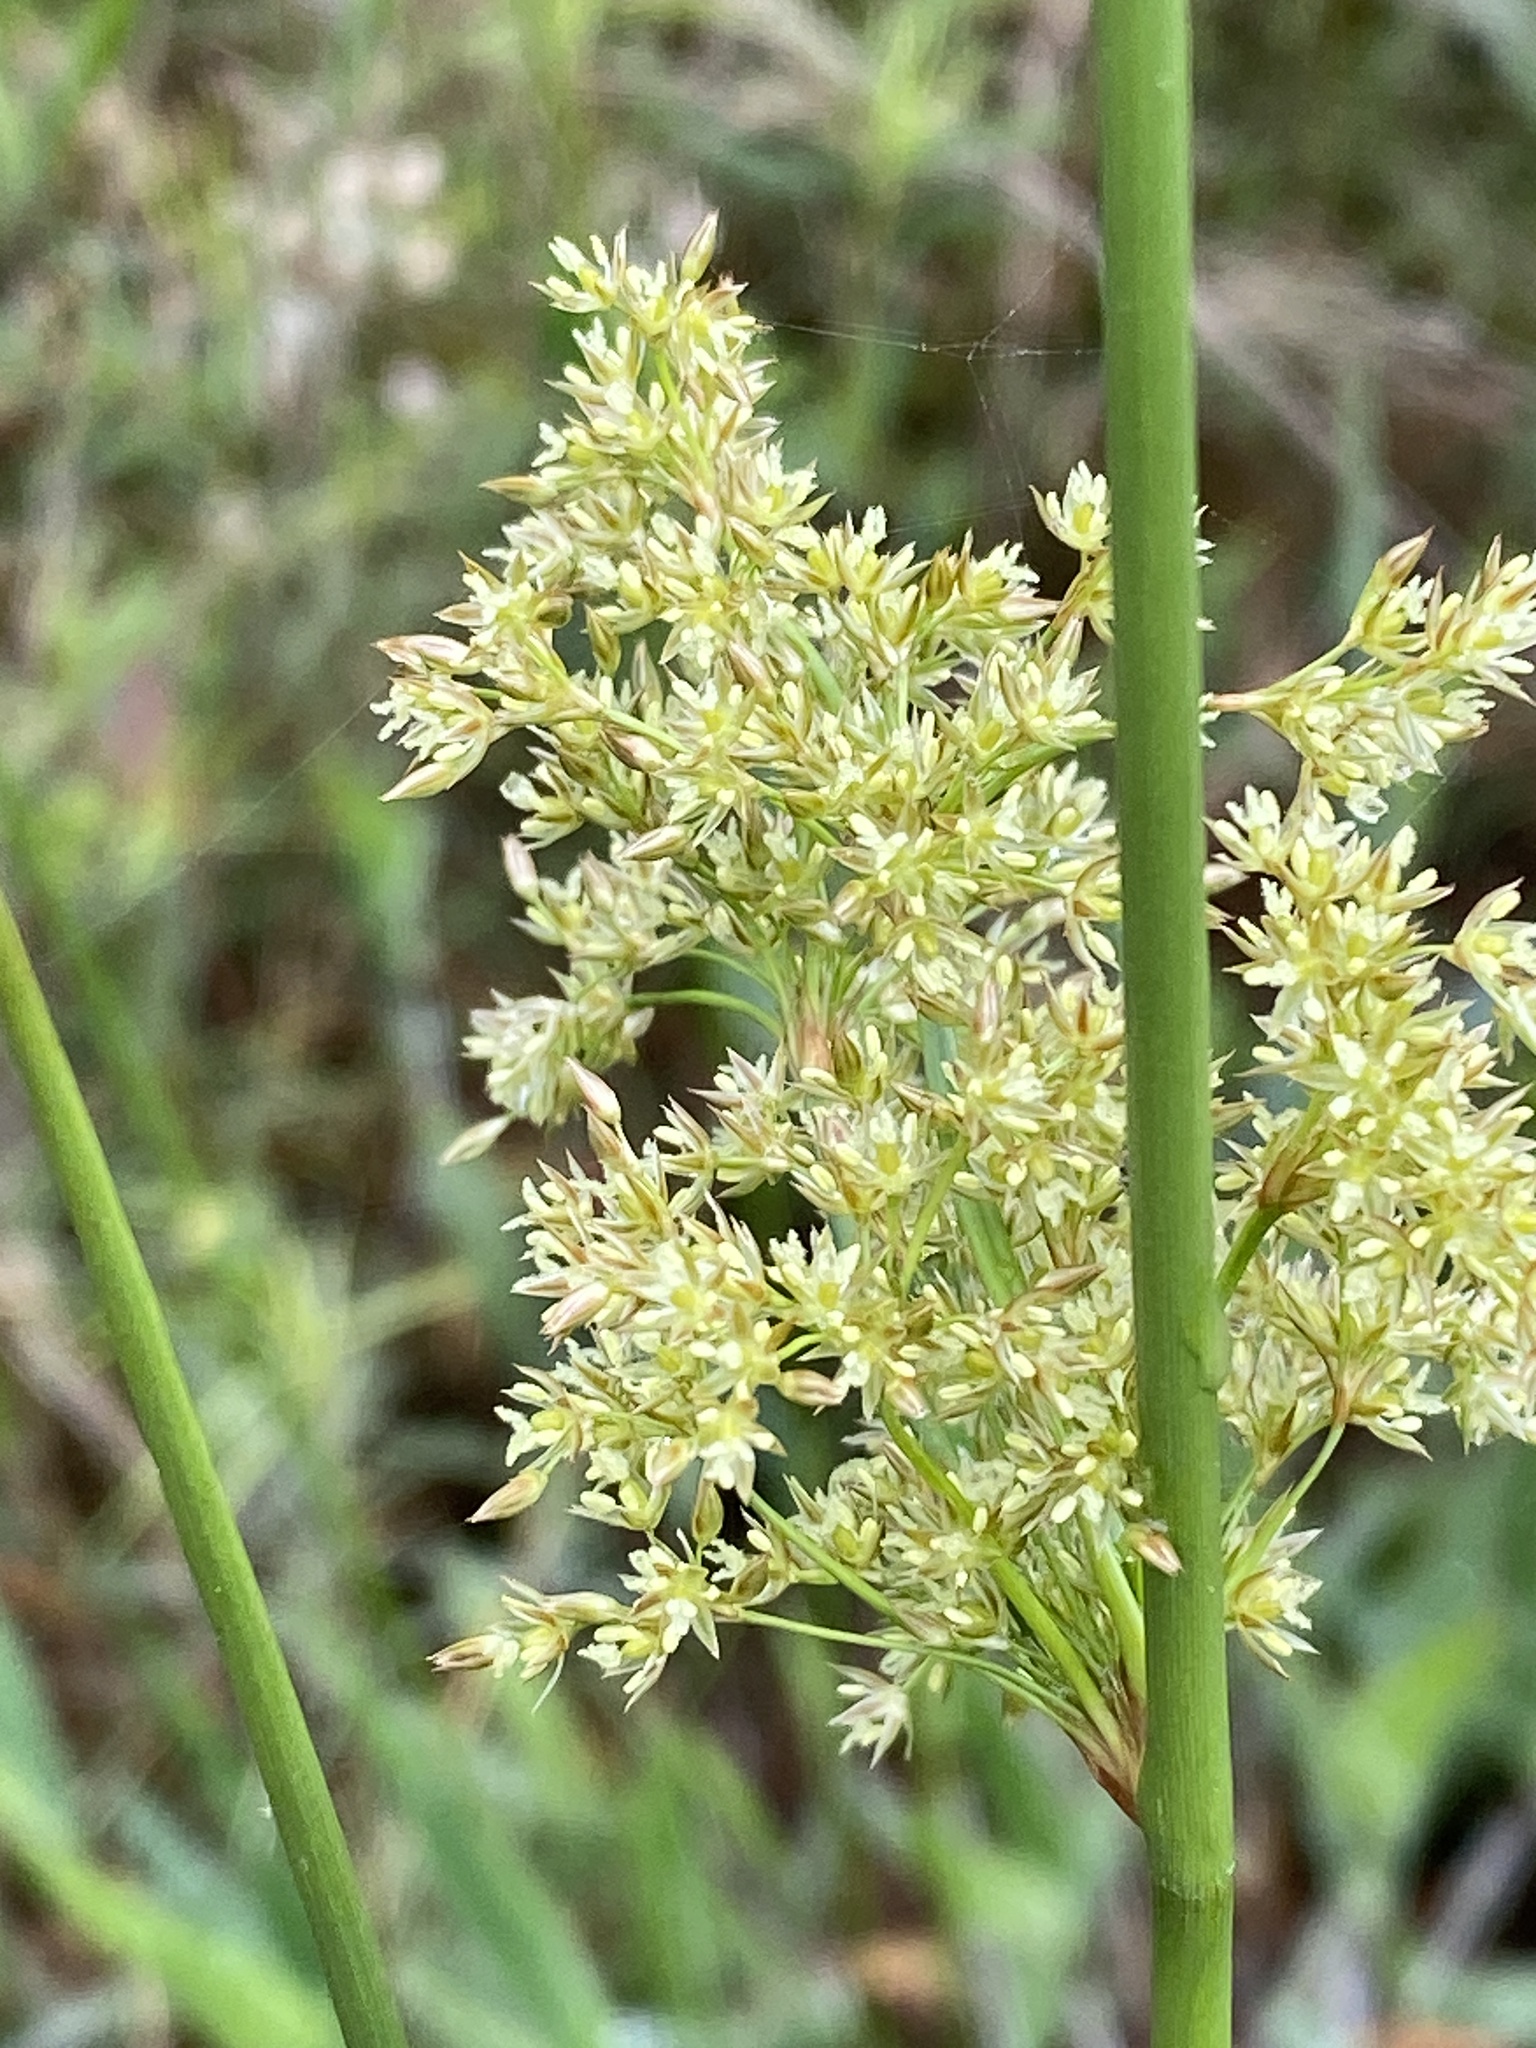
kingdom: Plantae
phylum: Tracheophyta
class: Liliopsida
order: Poales
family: Juncaceae
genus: Juncus
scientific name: Juncus effusus
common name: Soft rush
